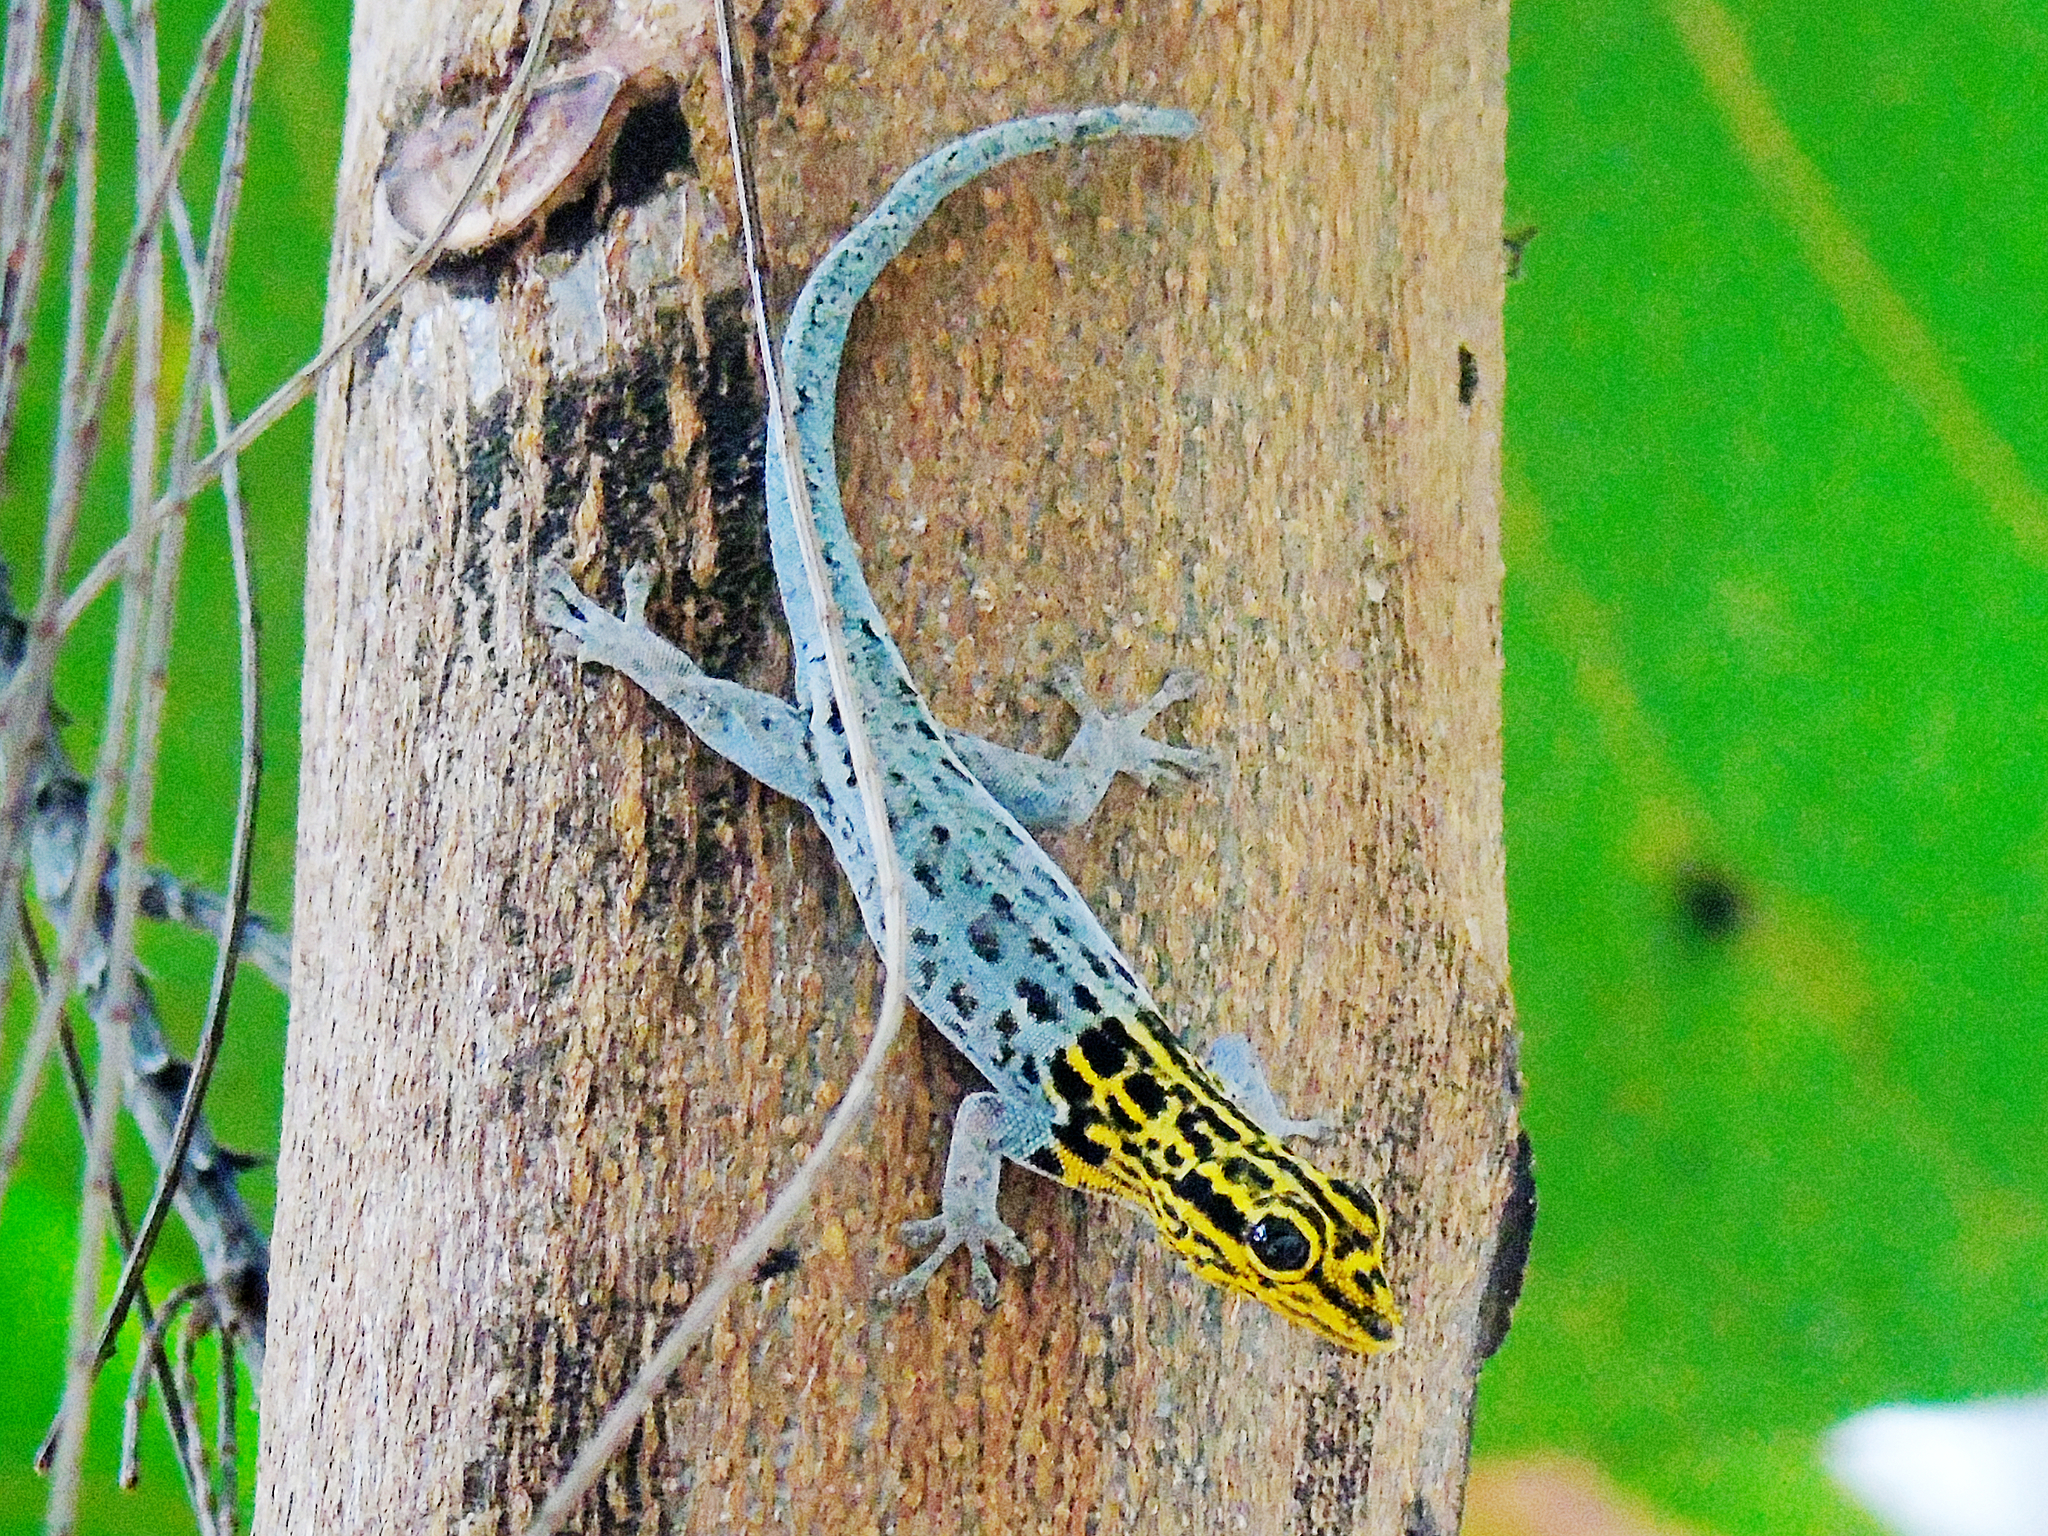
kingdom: Animalia
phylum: Chordata
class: Squamata
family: Gekkonidae
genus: Lygodactylus
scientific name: Lygodactylus picturatus
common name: Painted dwarf gecko
